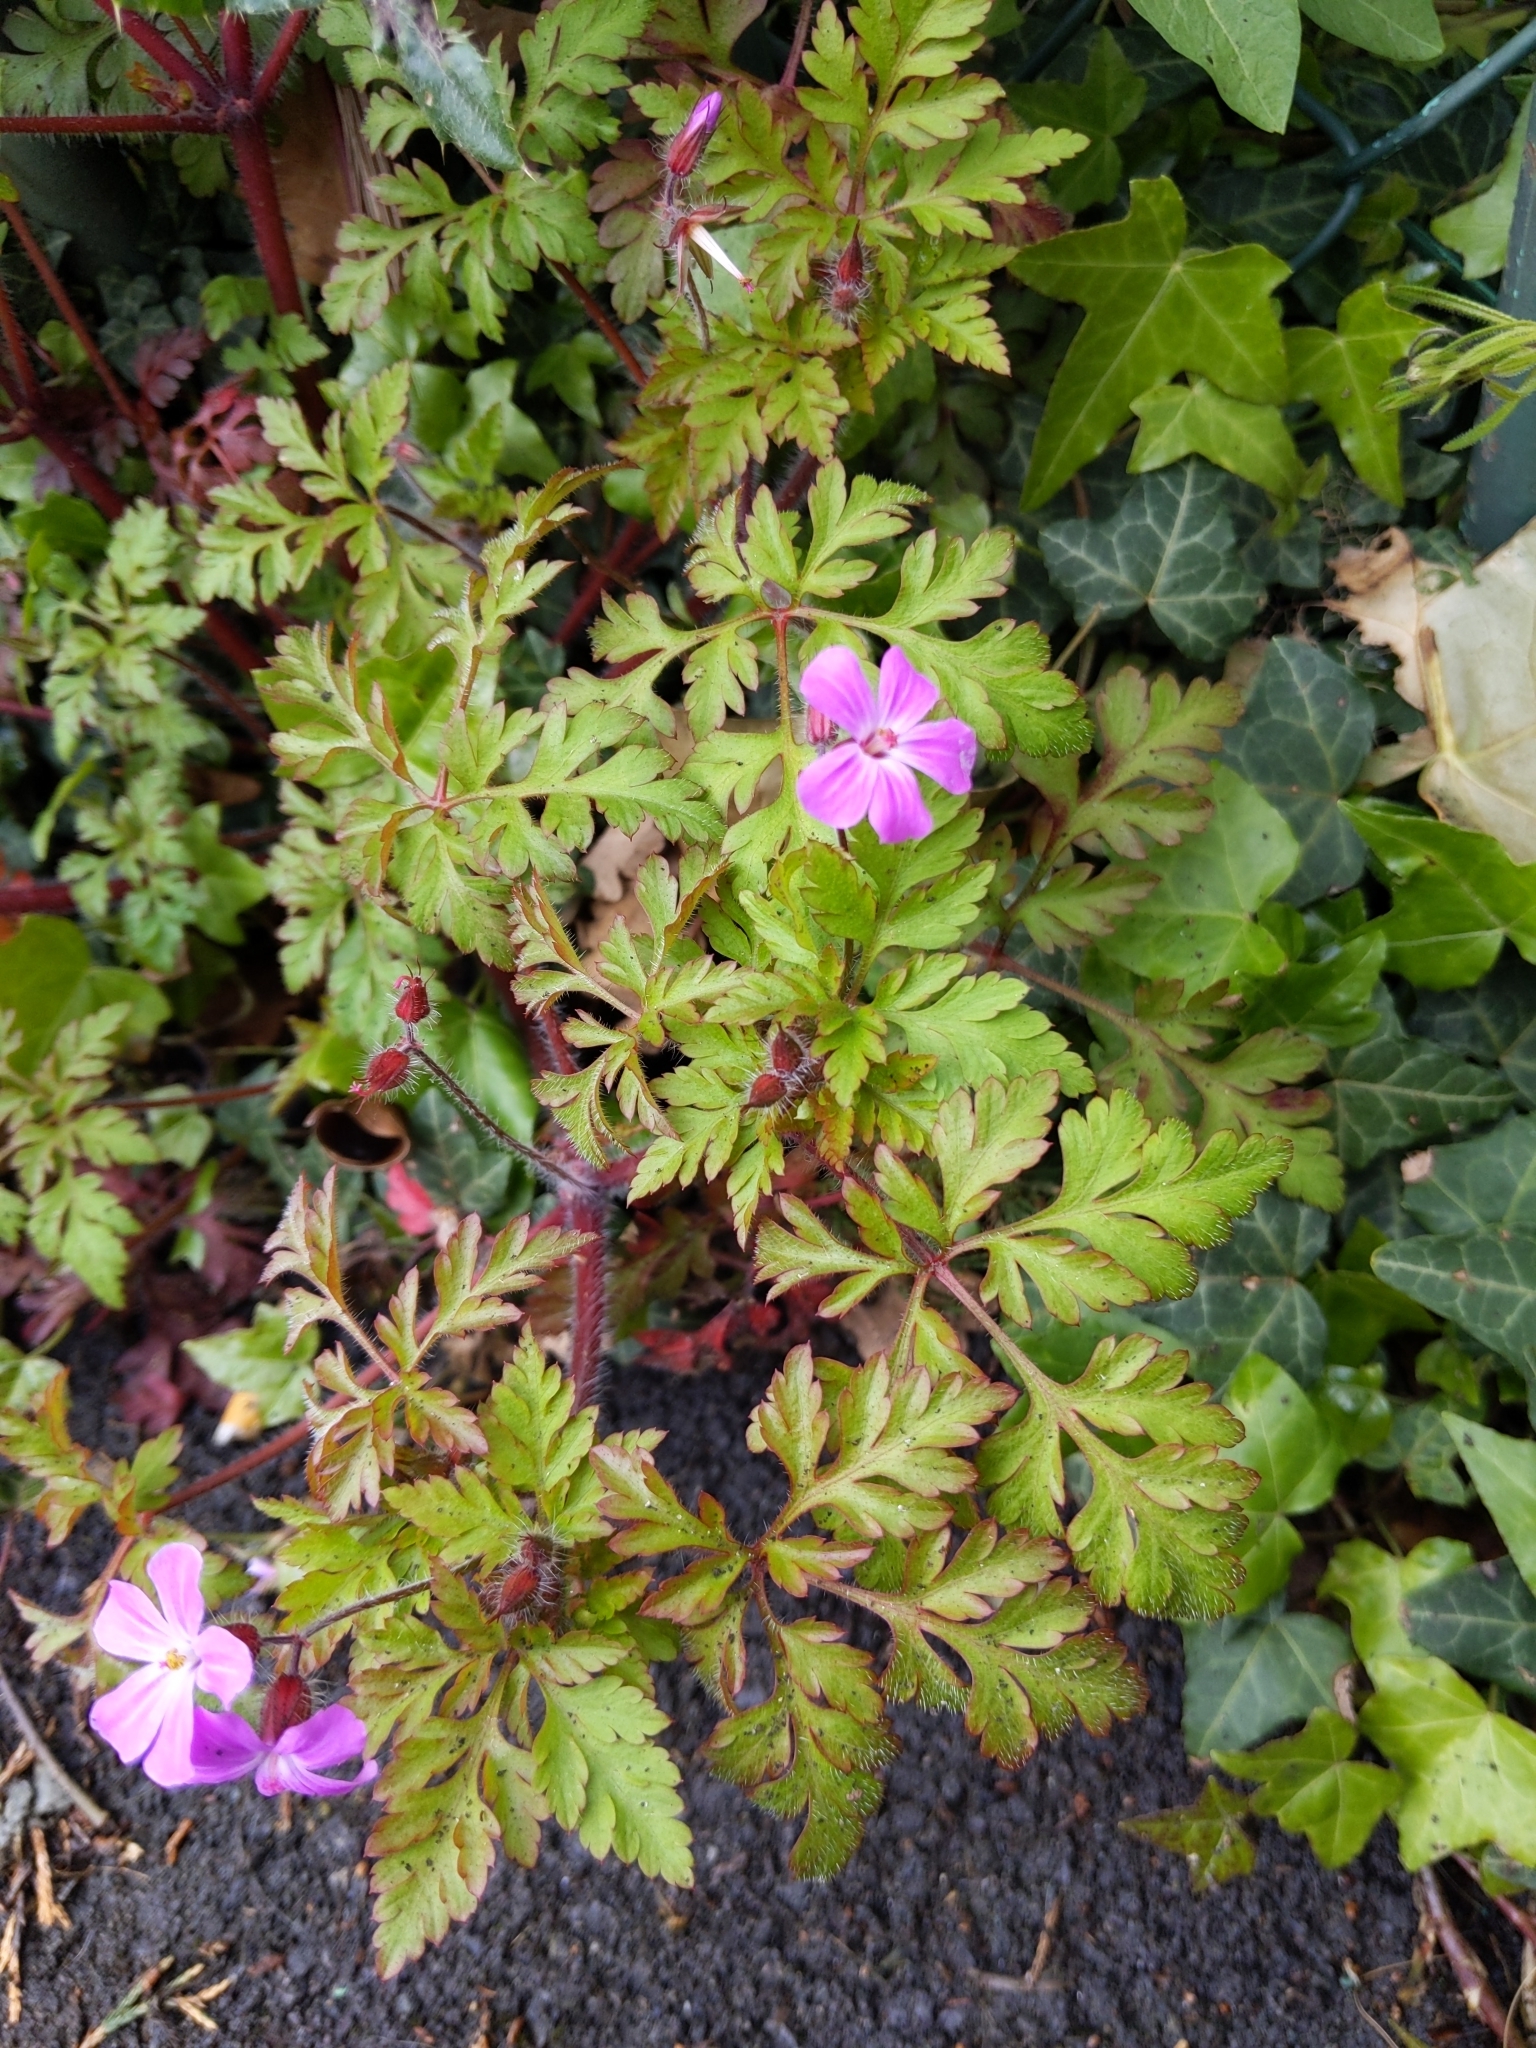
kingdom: Plantae
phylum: Tracheophyta
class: Magnoliopsida
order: Geraniales
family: Geraniaceae
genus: Geranium
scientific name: Geranium robertianum
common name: Herb-robert
